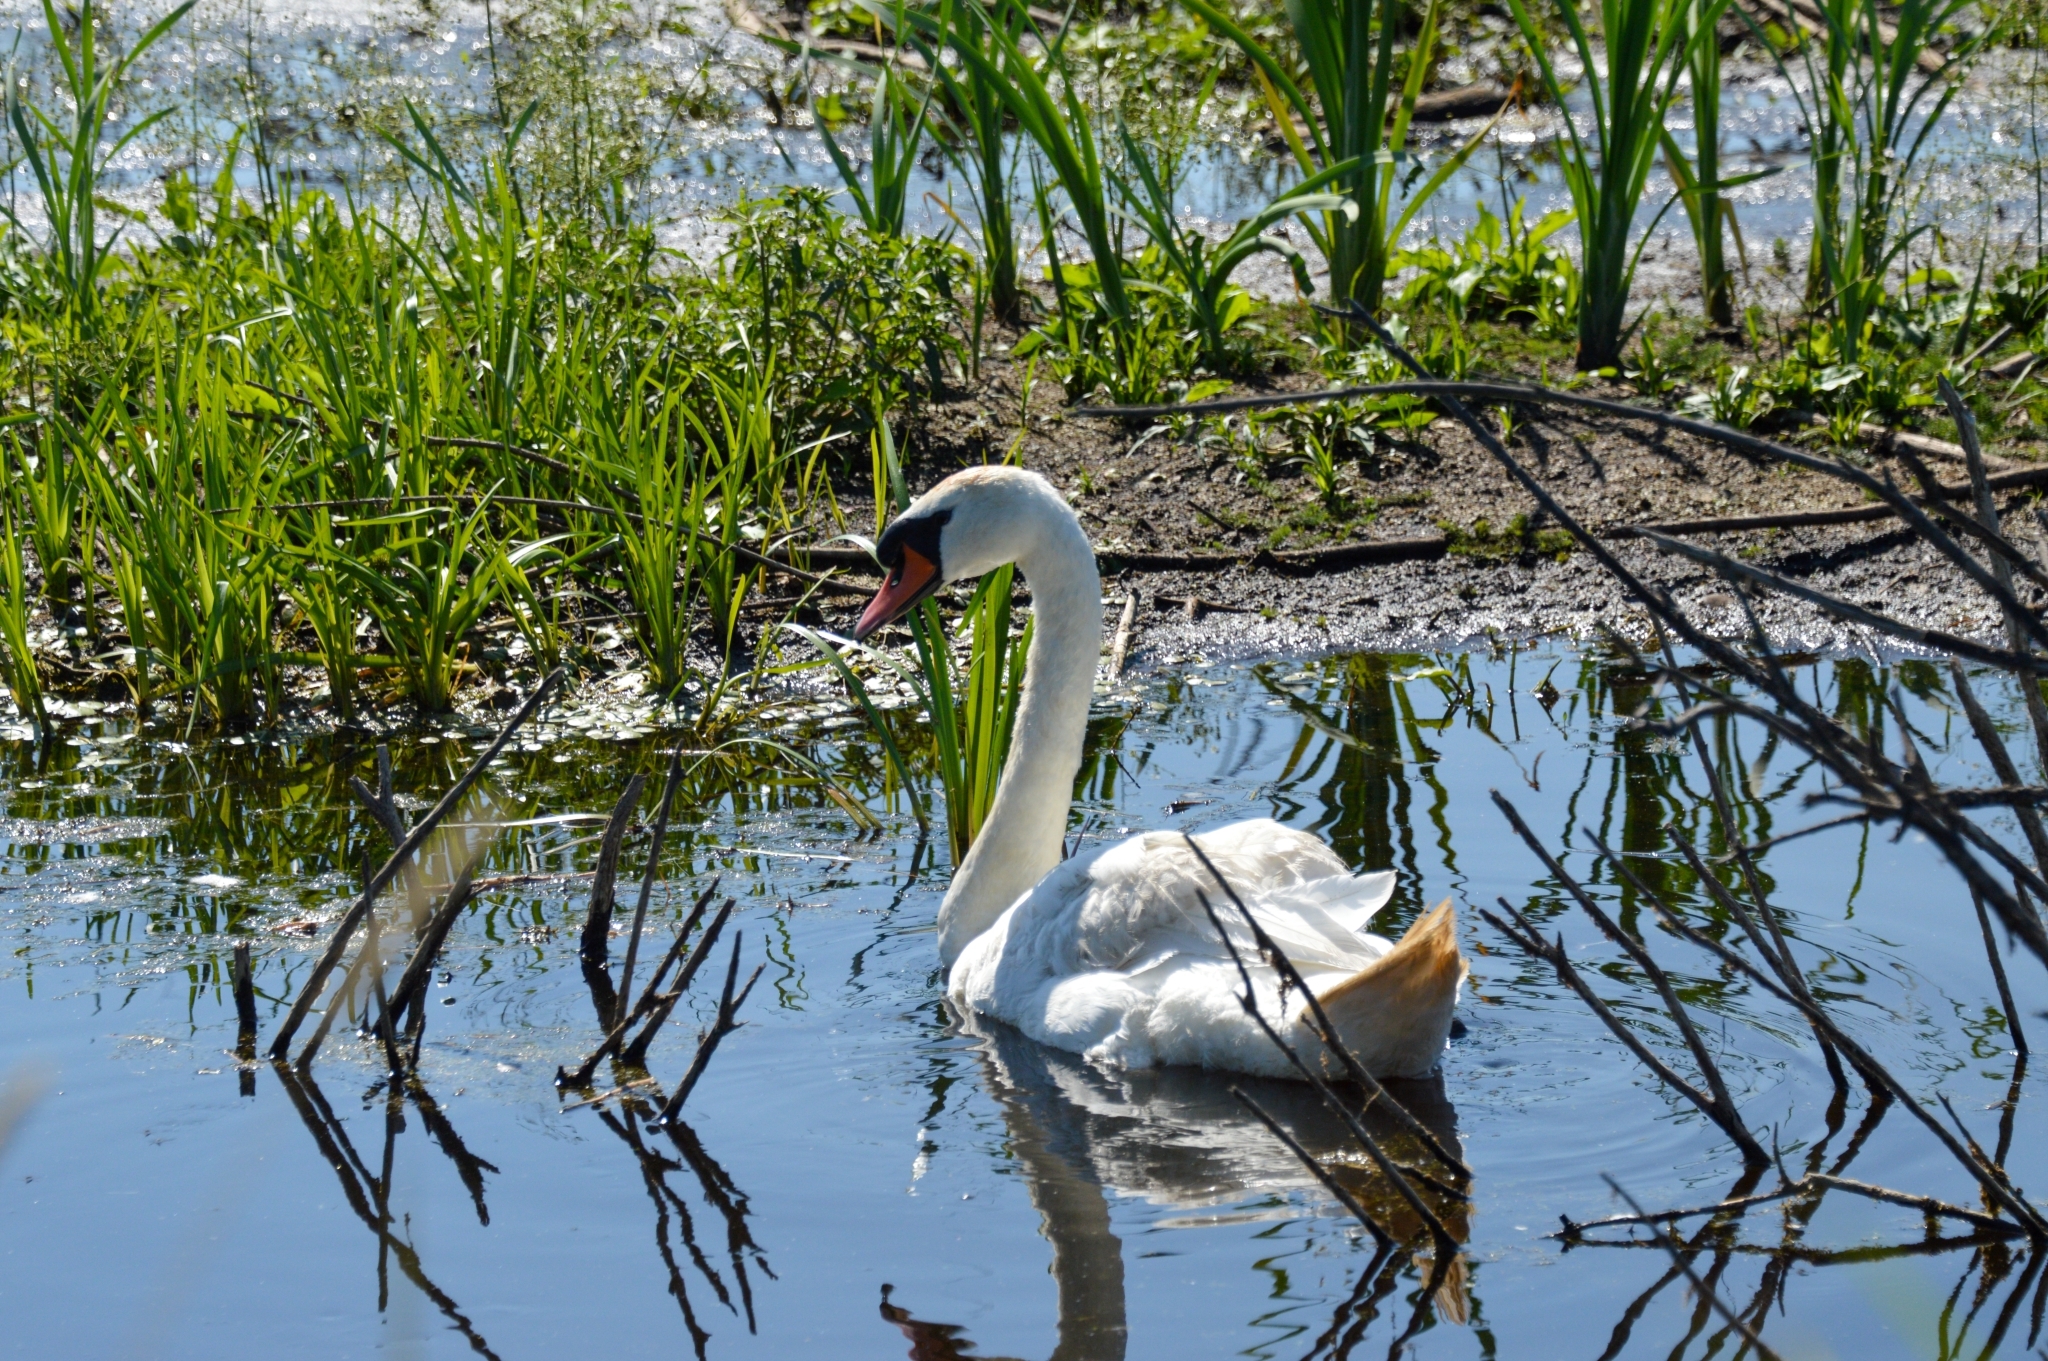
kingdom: Animalia
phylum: Chordata
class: Aves
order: Anseriformes
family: Anatidae
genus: Cygnus
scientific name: Cygnus olor
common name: Mute swan
